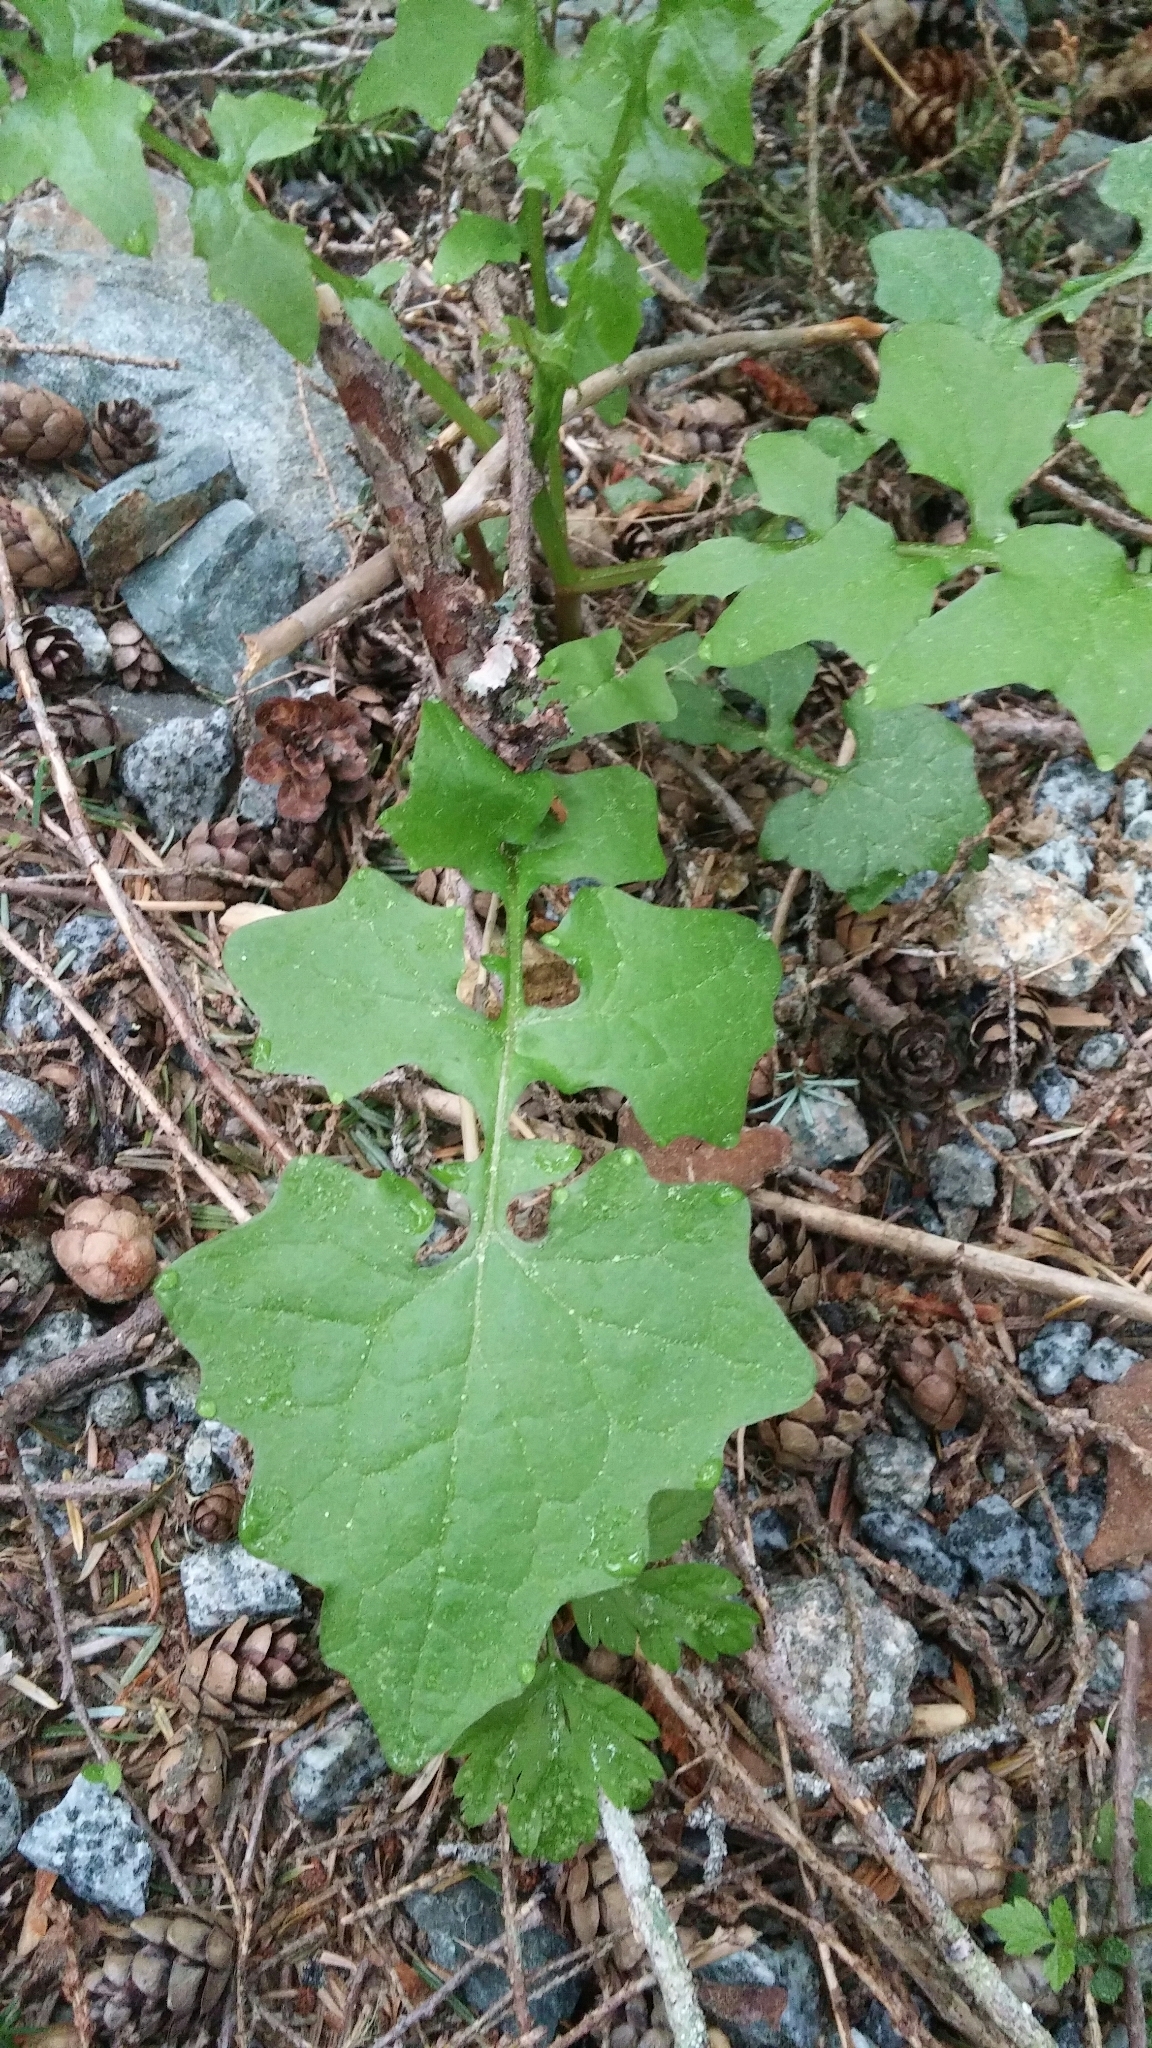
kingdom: Plantae
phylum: Tracheophyta
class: Magnoliopsida
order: Asterales
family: Asteraceae
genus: Mycelis
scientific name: Mycelis muralis
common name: Wall lettuce
